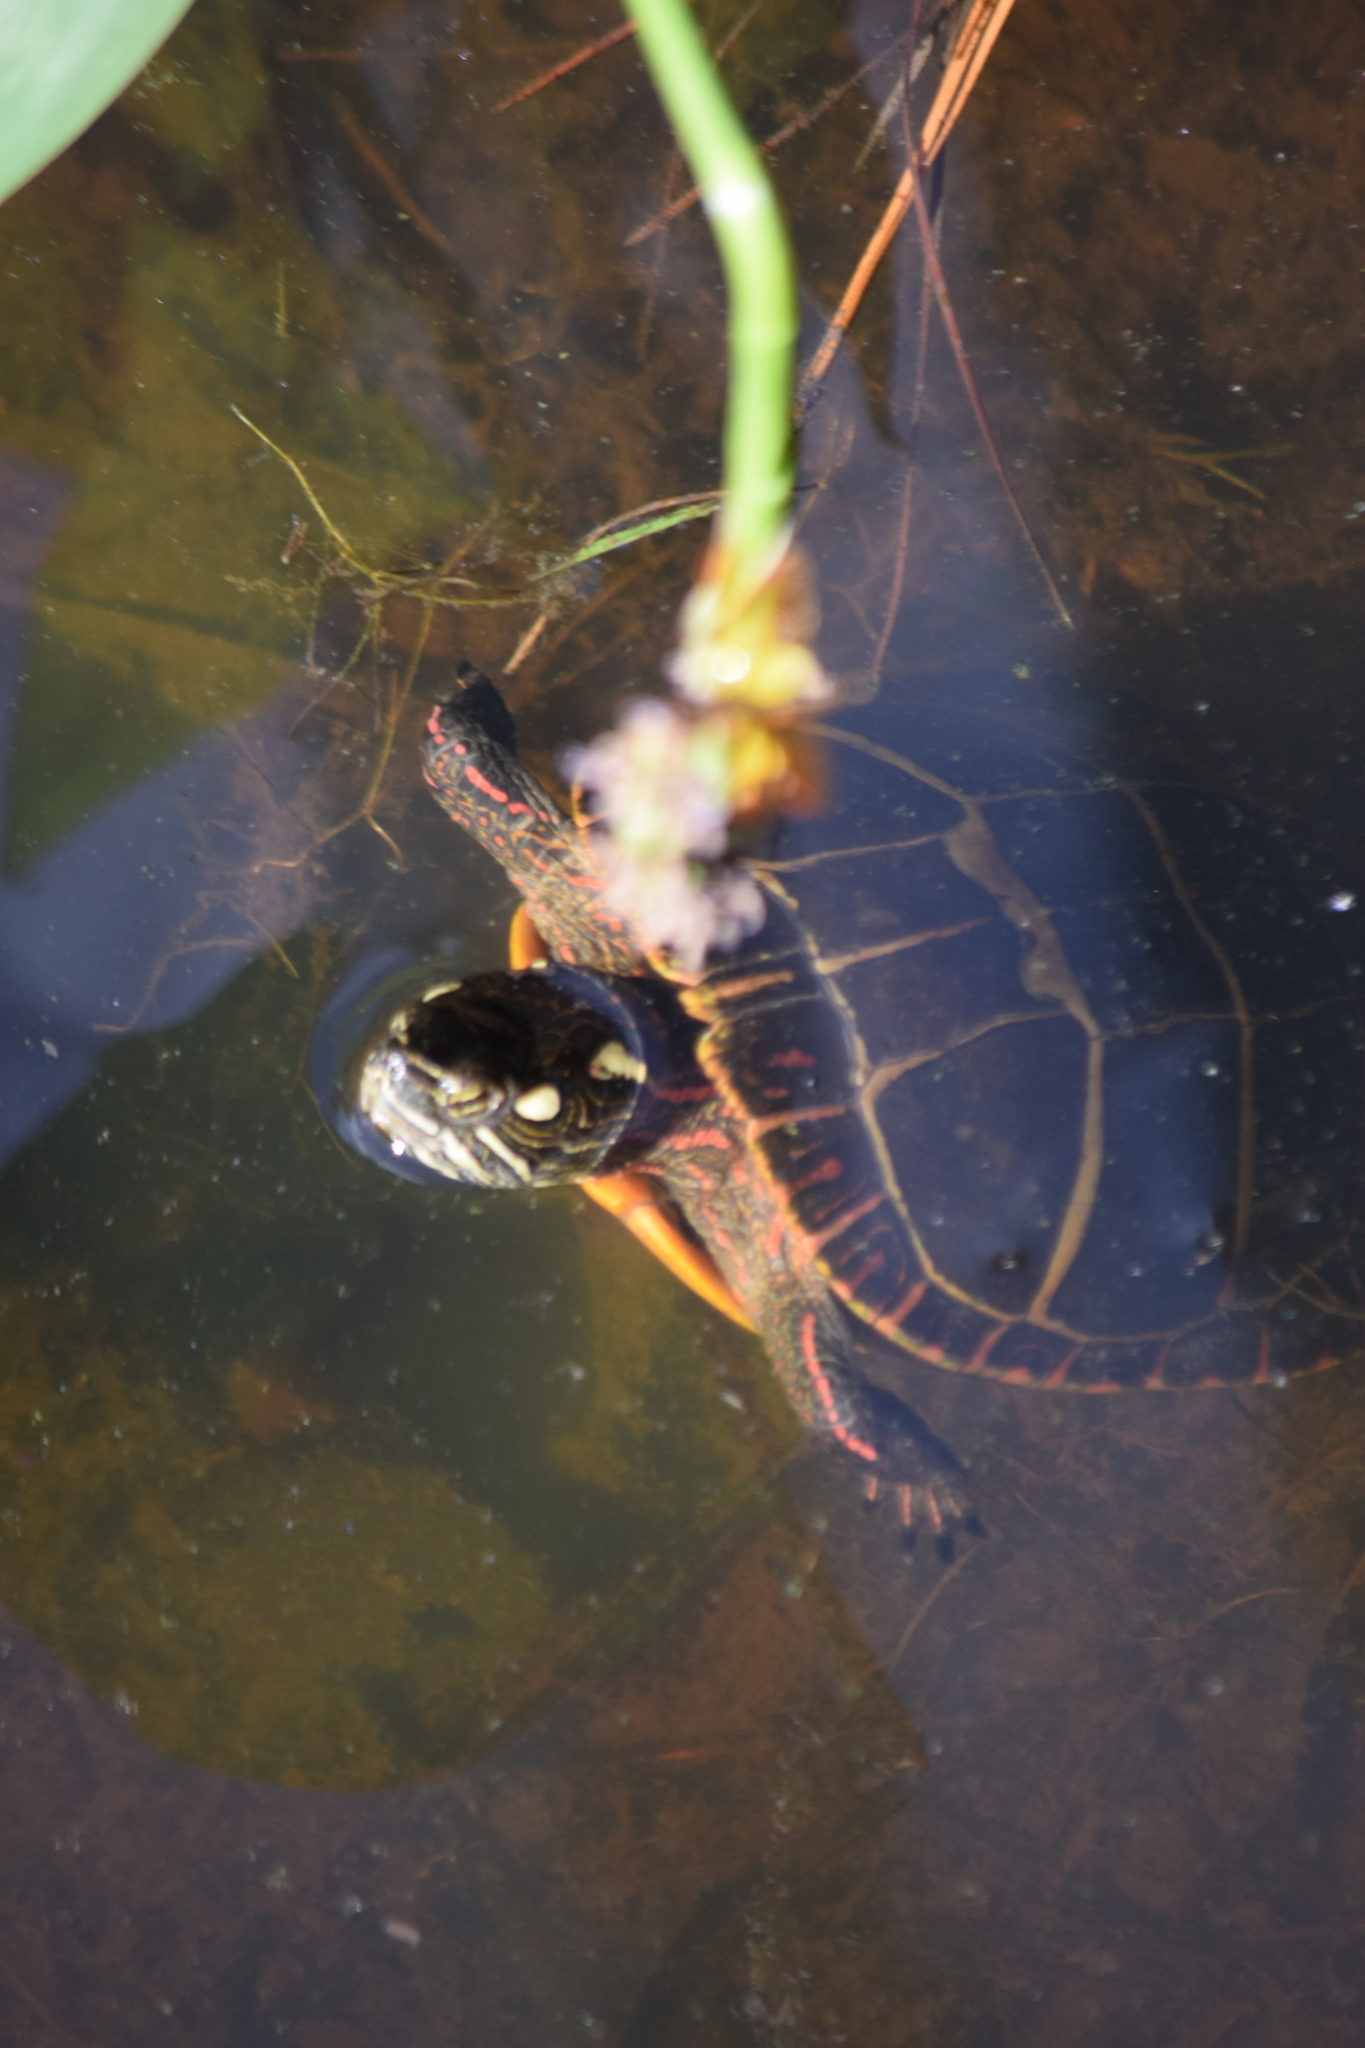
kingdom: Animalia
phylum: Chordata
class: Testudines
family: Emydidae
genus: Chrysemys
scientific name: Chrysemys picta
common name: Painted turtle
